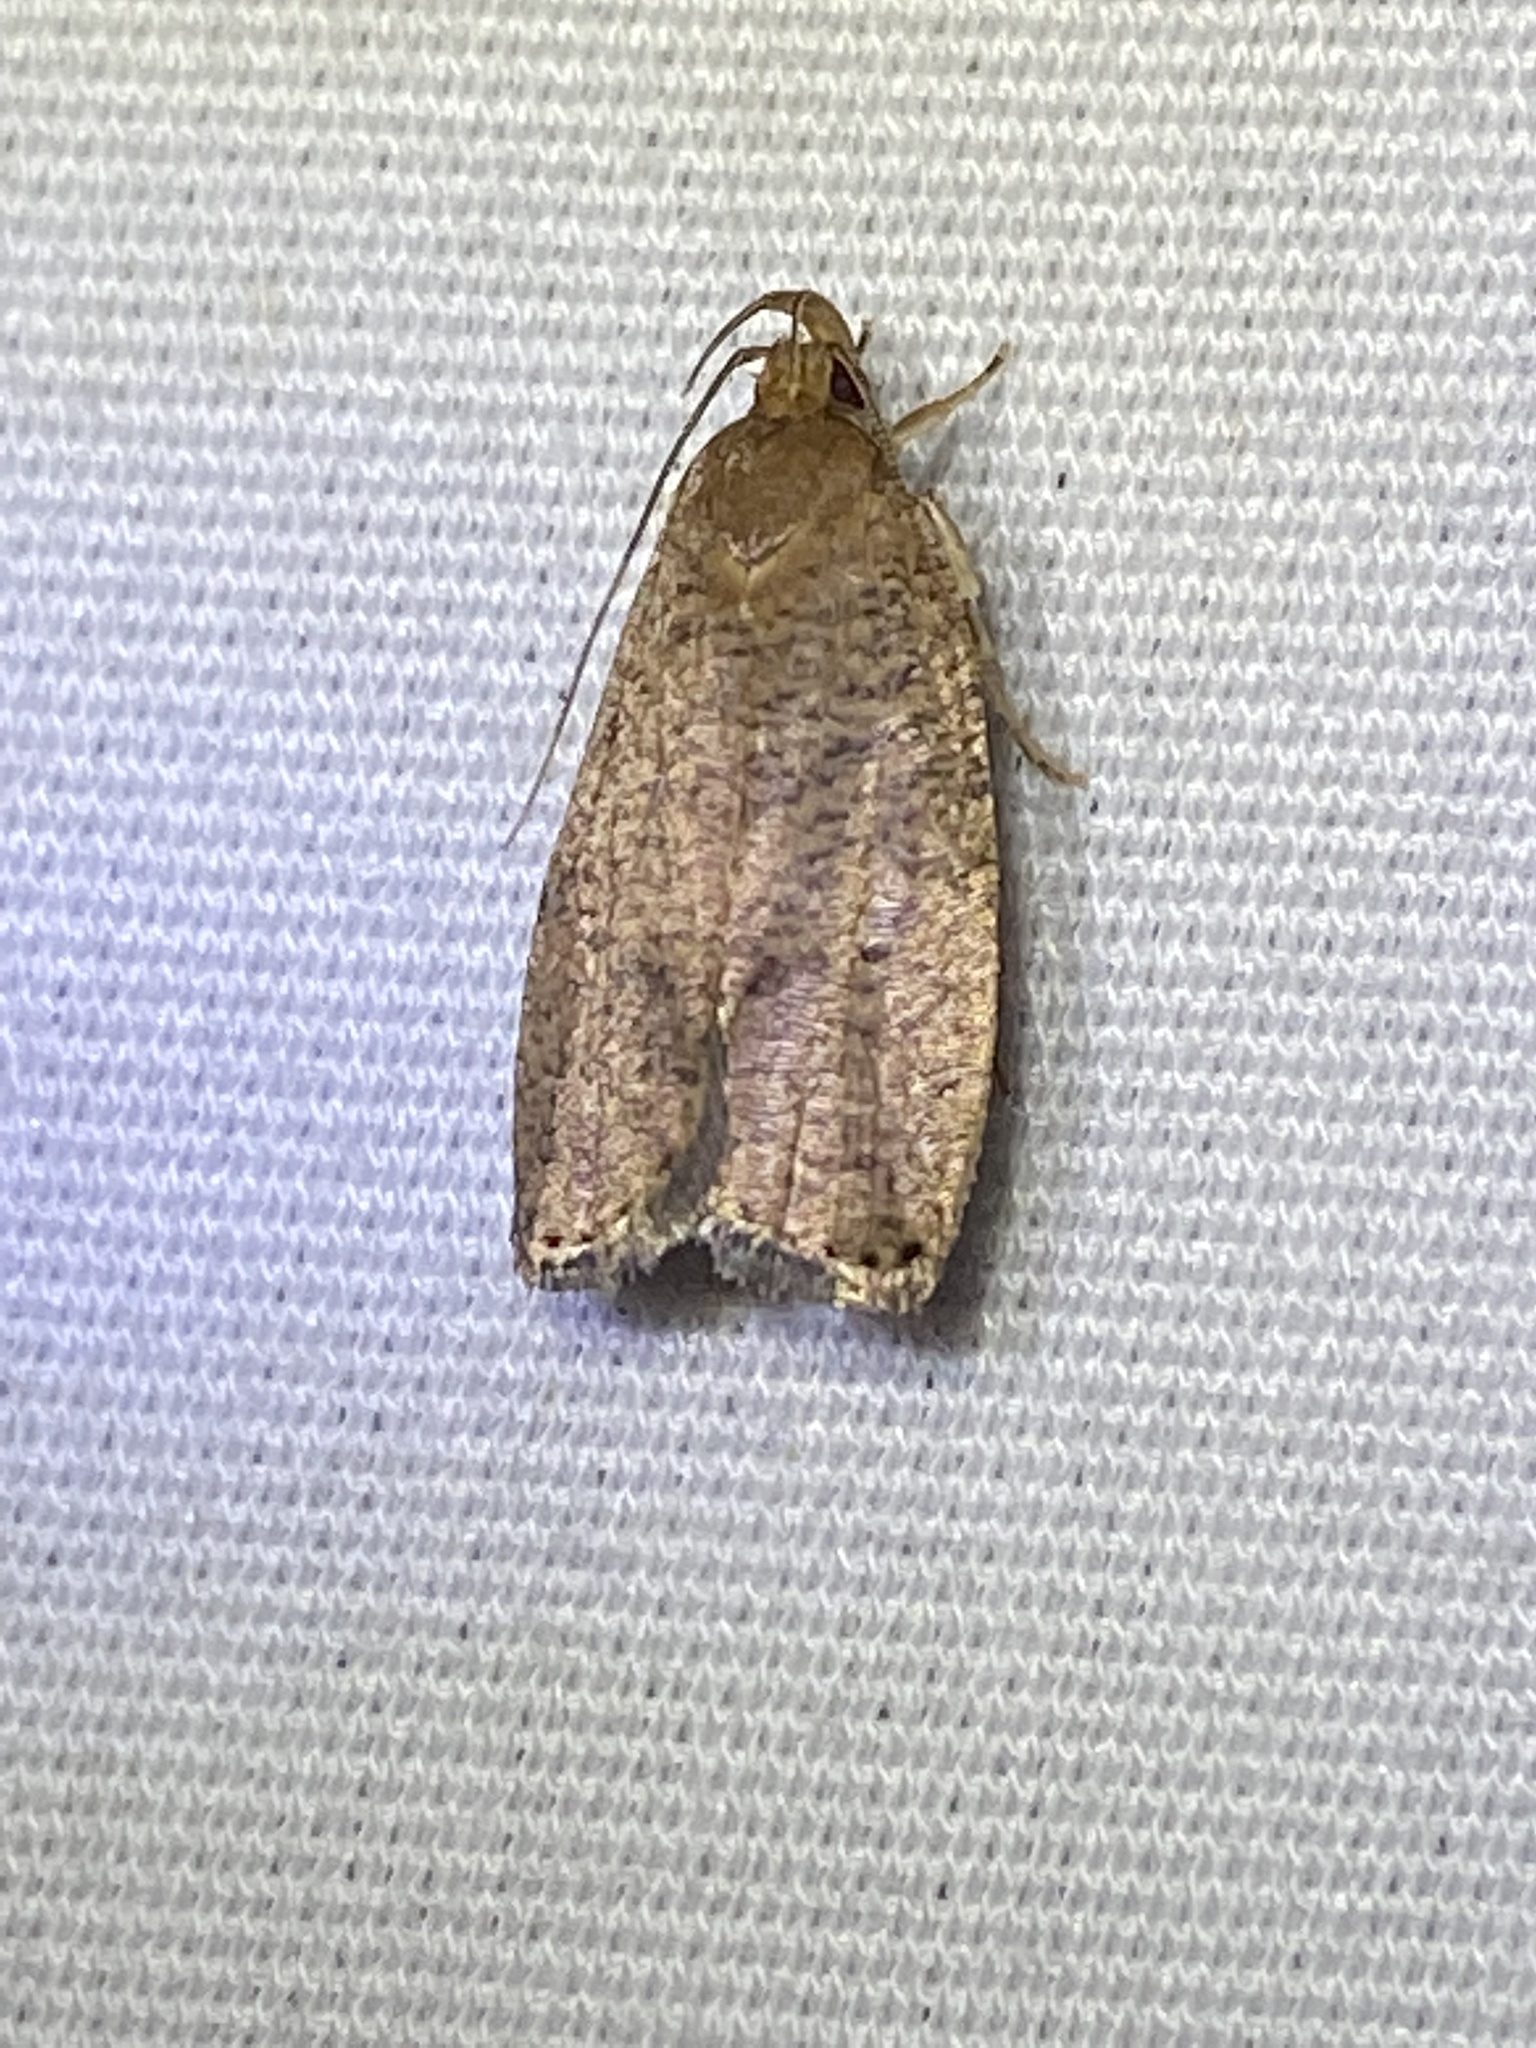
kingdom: Animalia
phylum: Arthropoda
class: Insecta
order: Lepidoptera
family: Depressariidae
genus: Psilocorsis
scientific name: Psilocorsis reflexella
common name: Dotted leaftier moth
